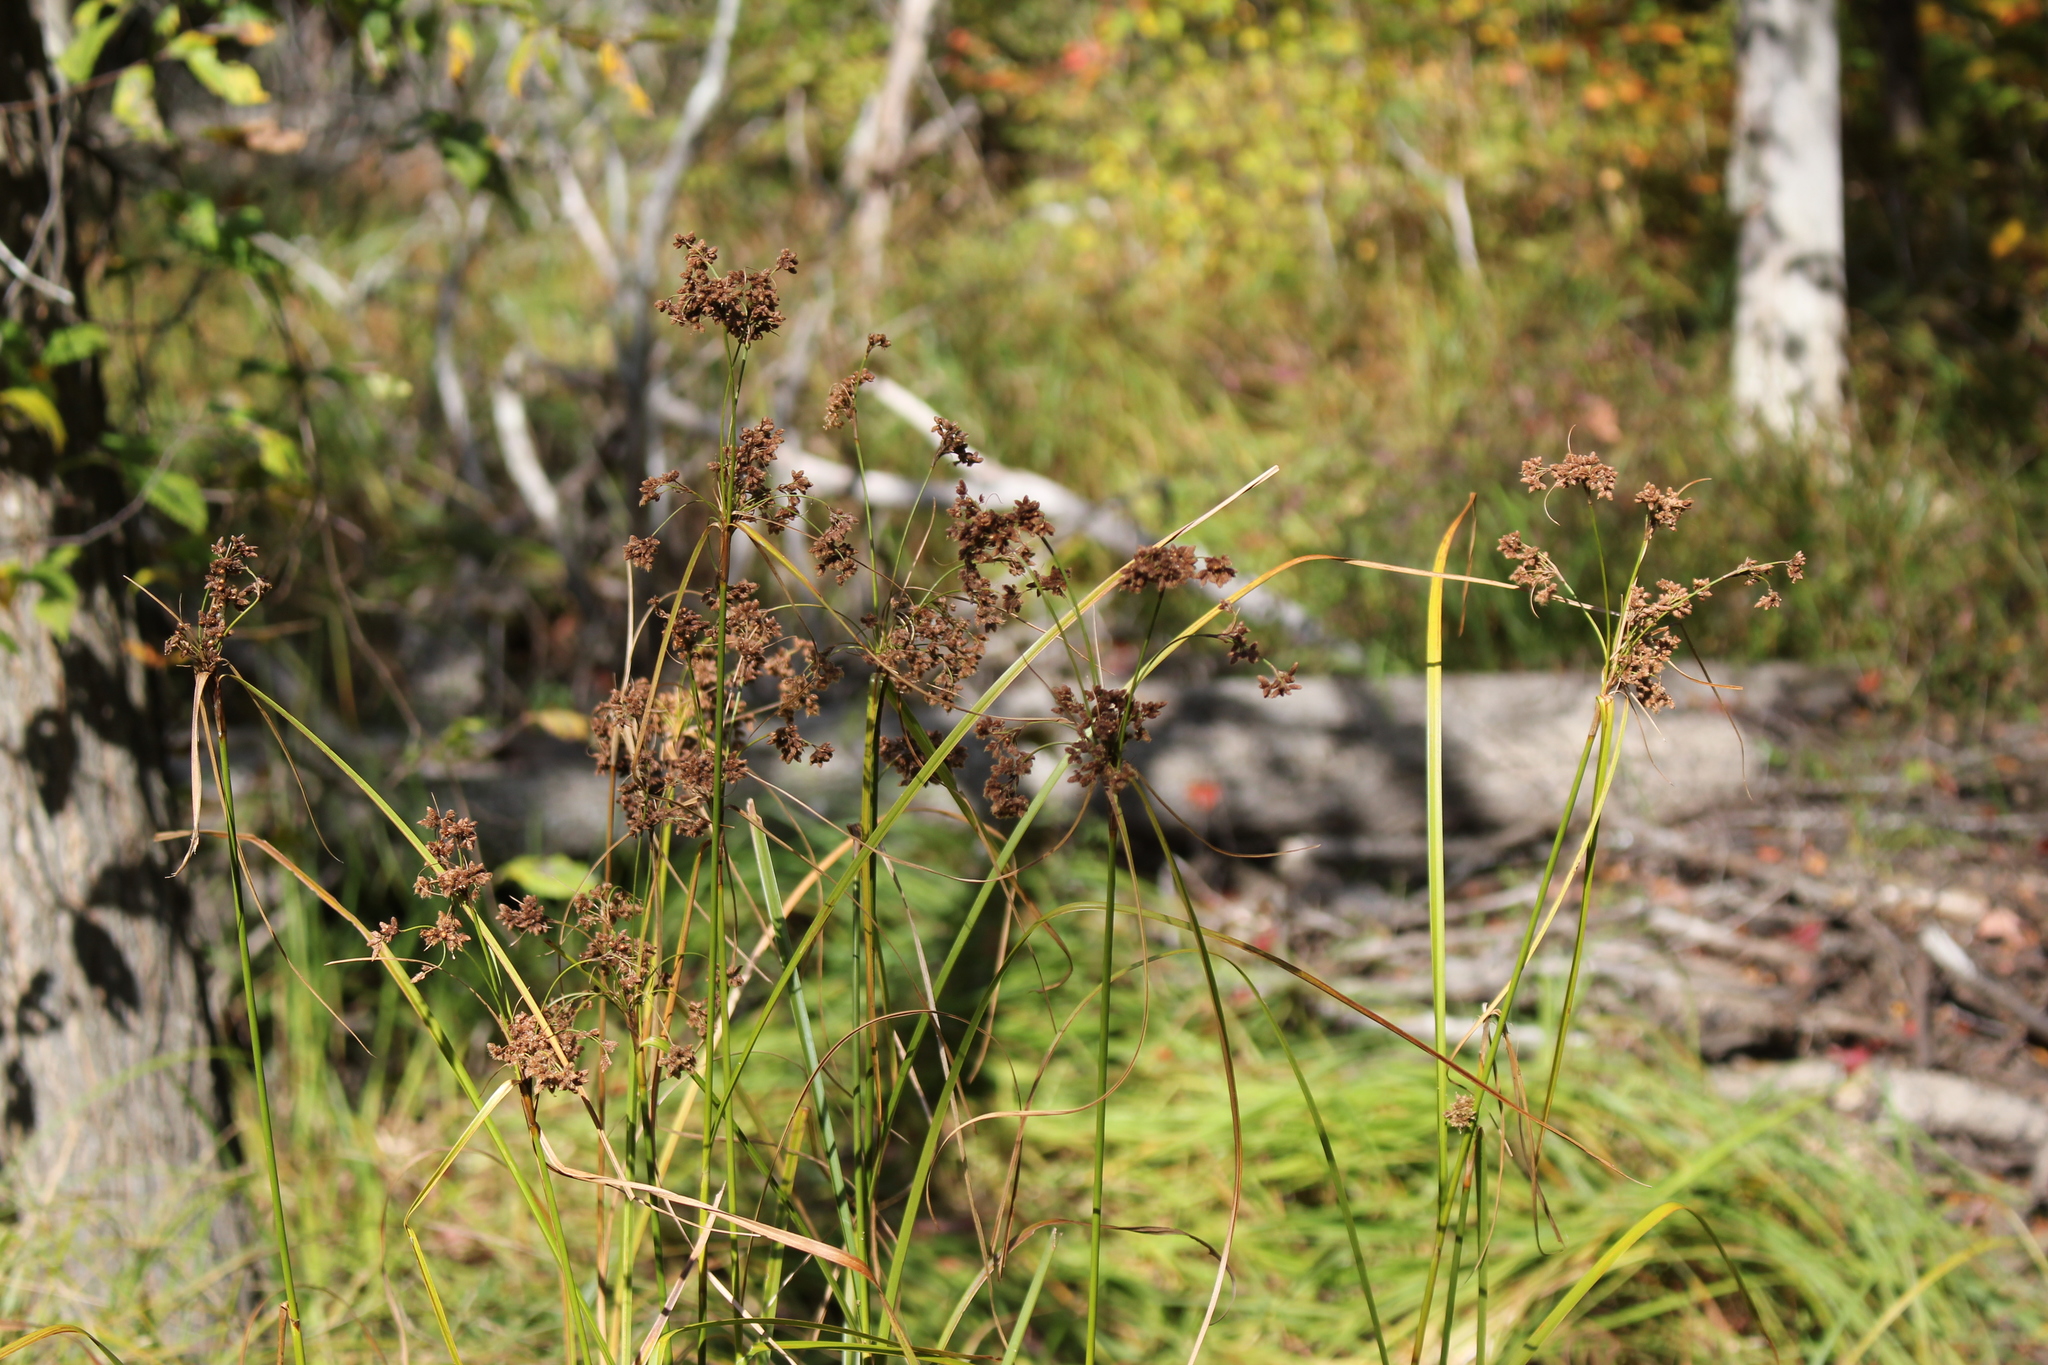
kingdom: Plantae
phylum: Tracheophyta
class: Liliopsida
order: Poales
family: Cyperaceae
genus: Scirpus
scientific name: Scirpus cyperinus
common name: Black-sheathed bulrush
